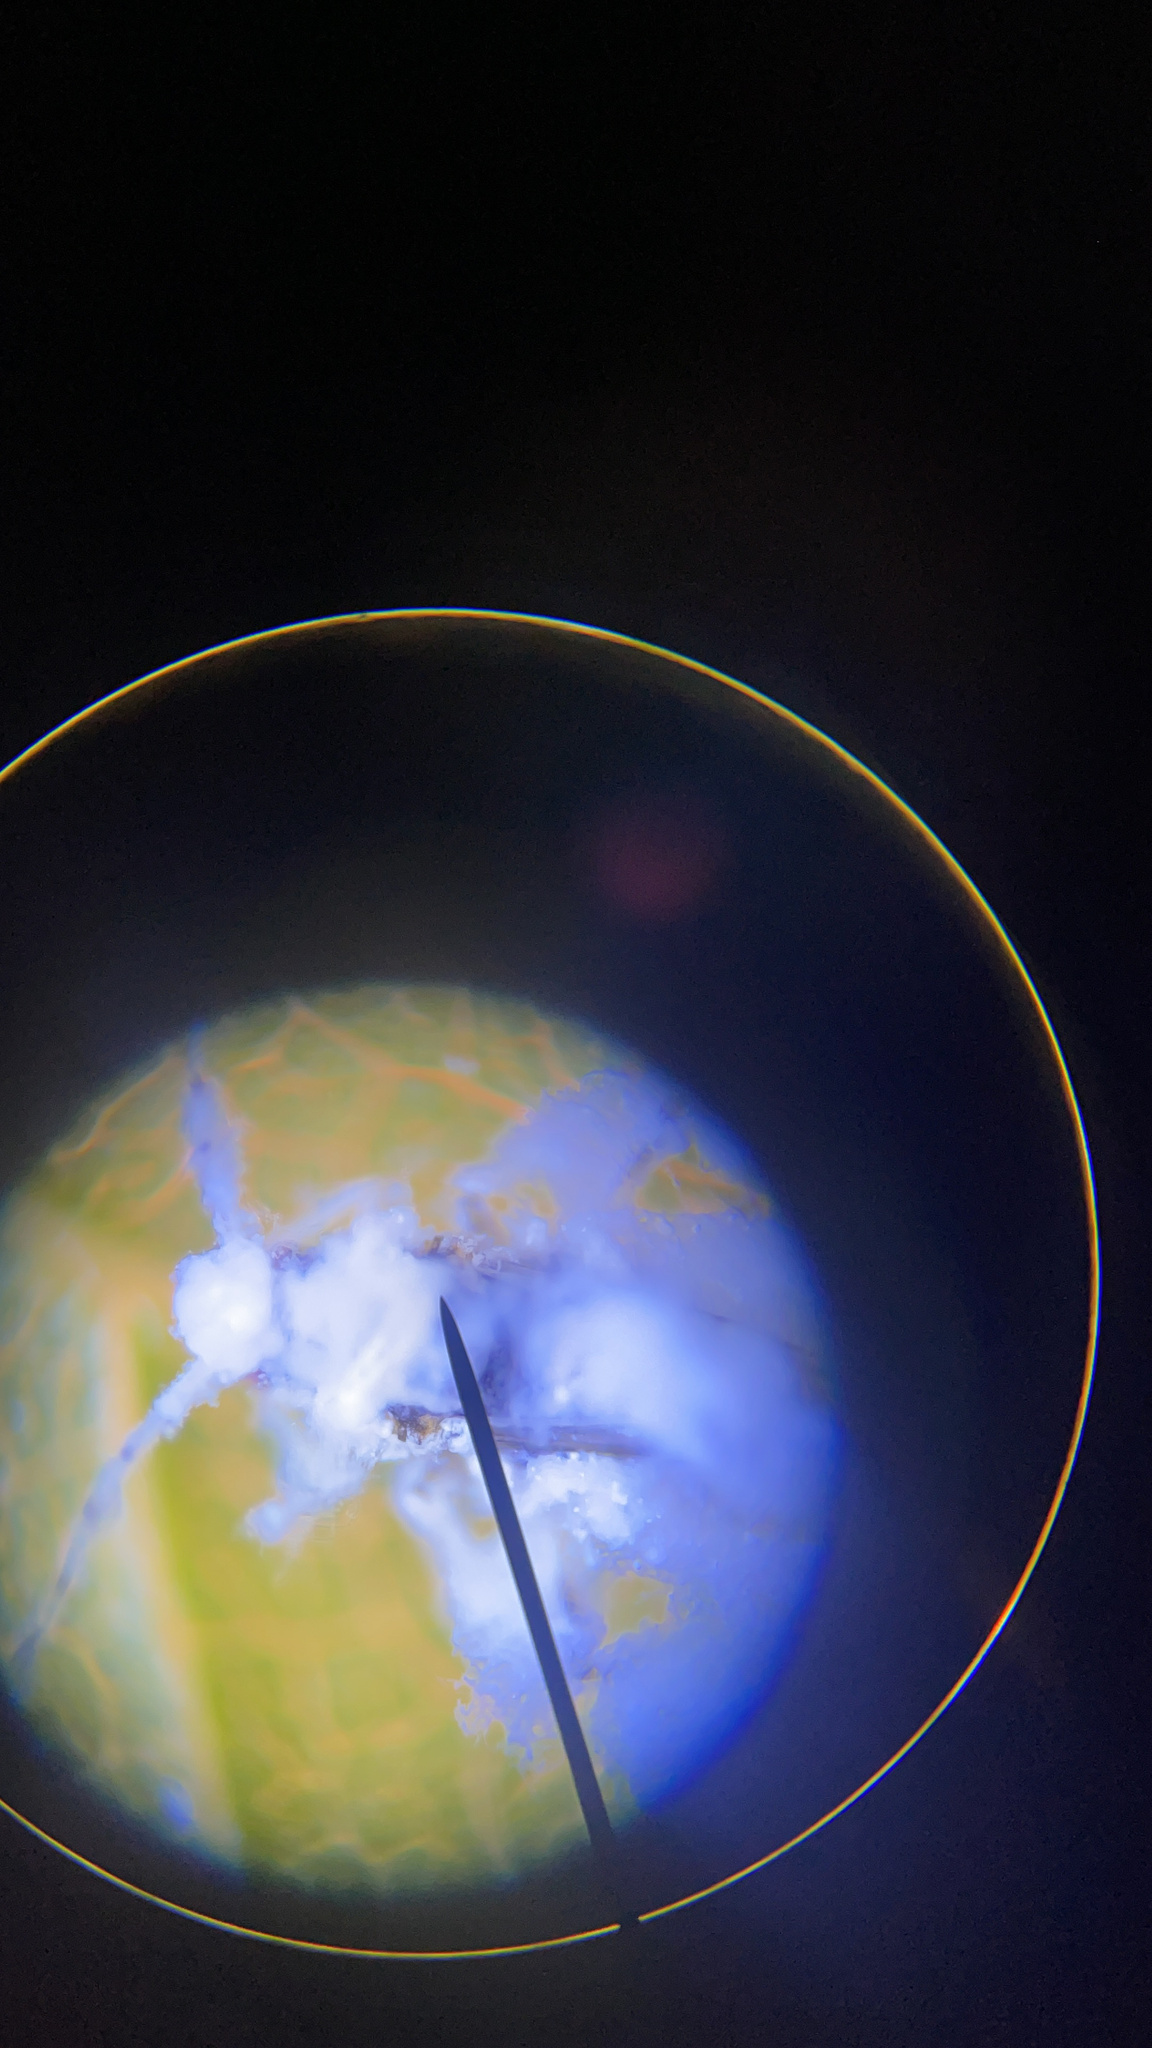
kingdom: Animalia
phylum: Arthropoda
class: Insecta
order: Hemiptera
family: Aphididae
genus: Shivaphis
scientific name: Shivaphis celti
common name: Asian wooly hackberry aphid
